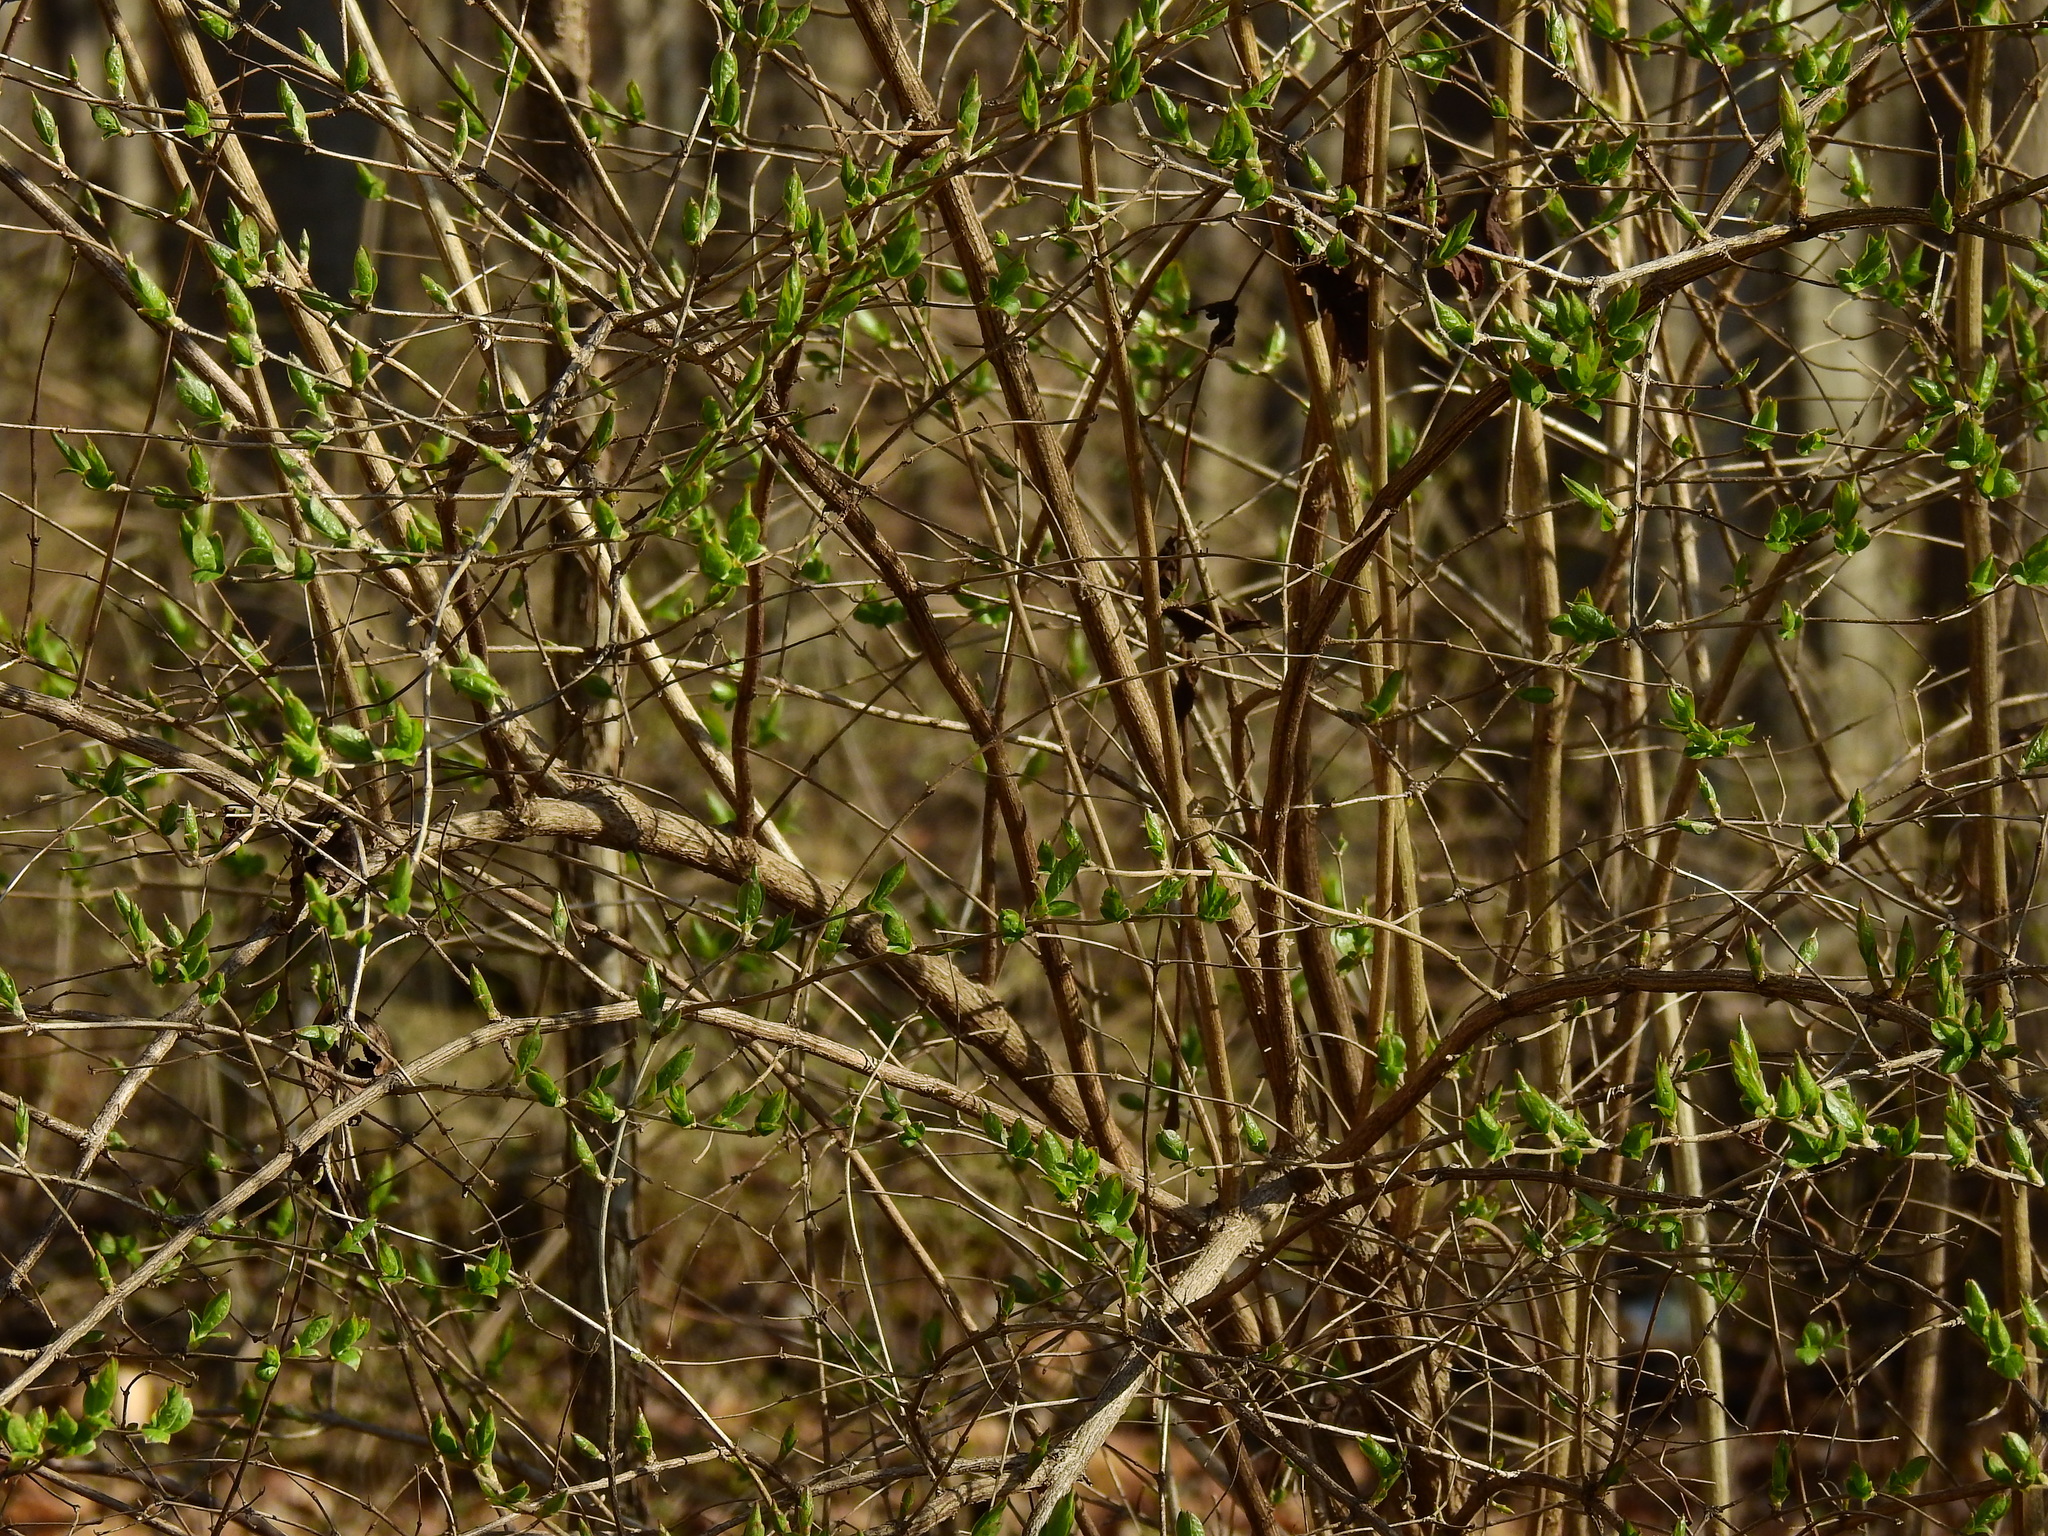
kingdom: Plantae
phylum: Tracheophyta
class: Magnoliopsida
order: Dipsacales
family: Caprifoliaceae
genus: Lonicera
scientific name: Lonicera maackii
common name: Amur honeysuckle
